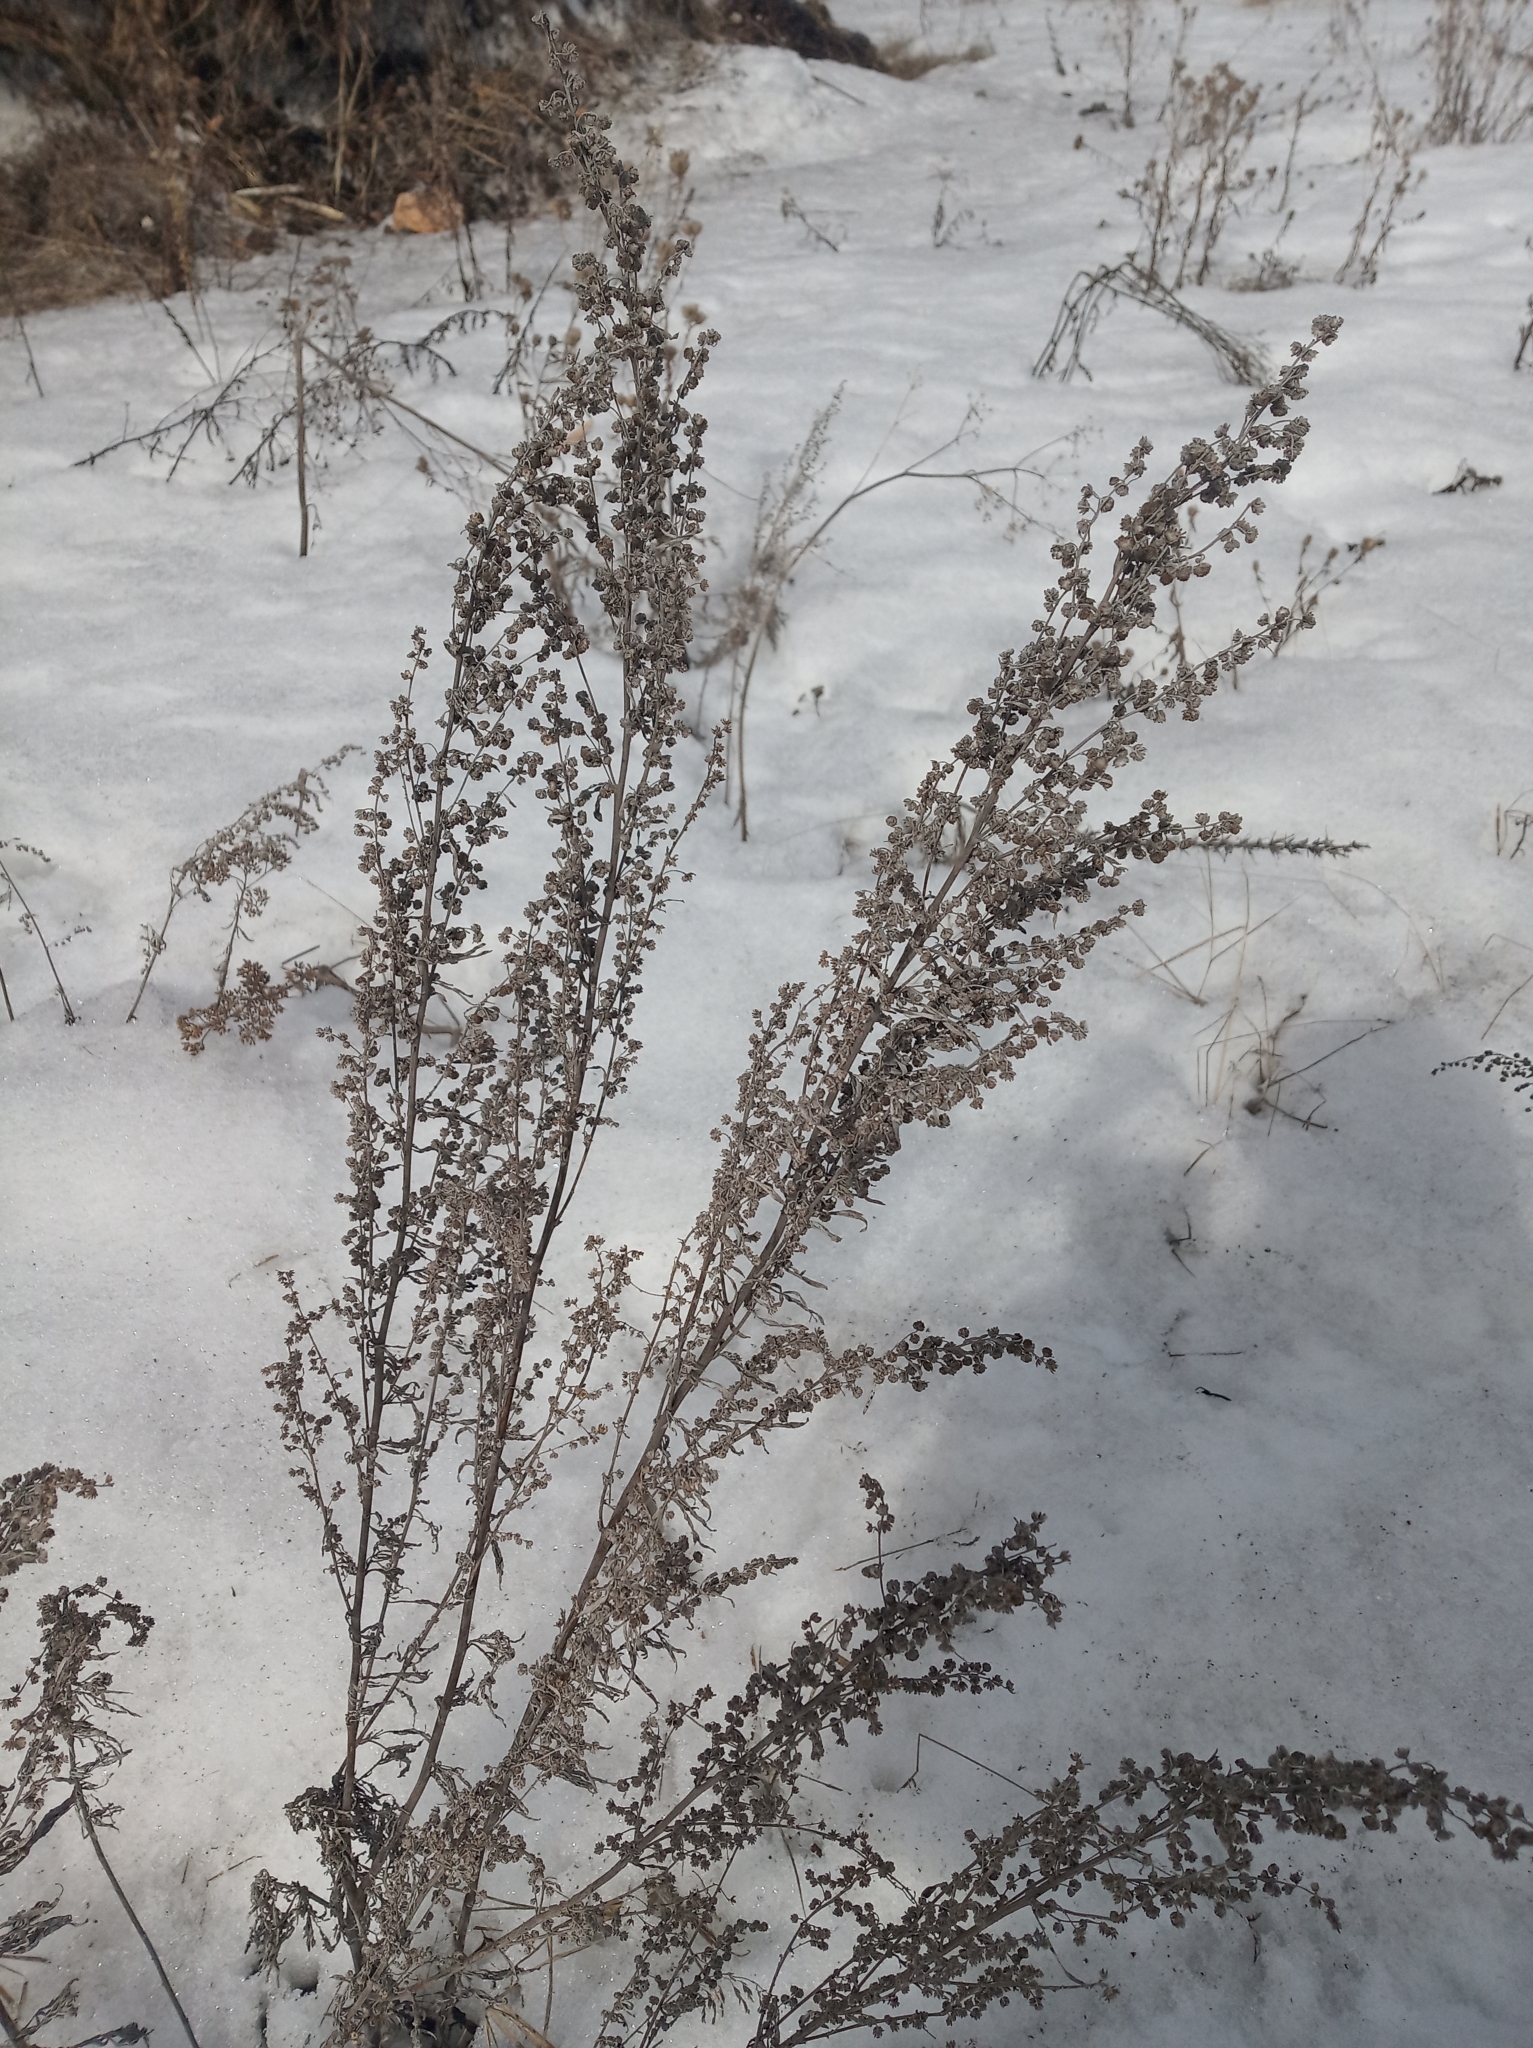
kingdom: Plantae
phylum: Tracheophyta
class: Magnoliopsida
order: Asterales
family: Asteraceae
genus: Artemisia
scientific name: Artemisia absinthium
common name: Wormwood
